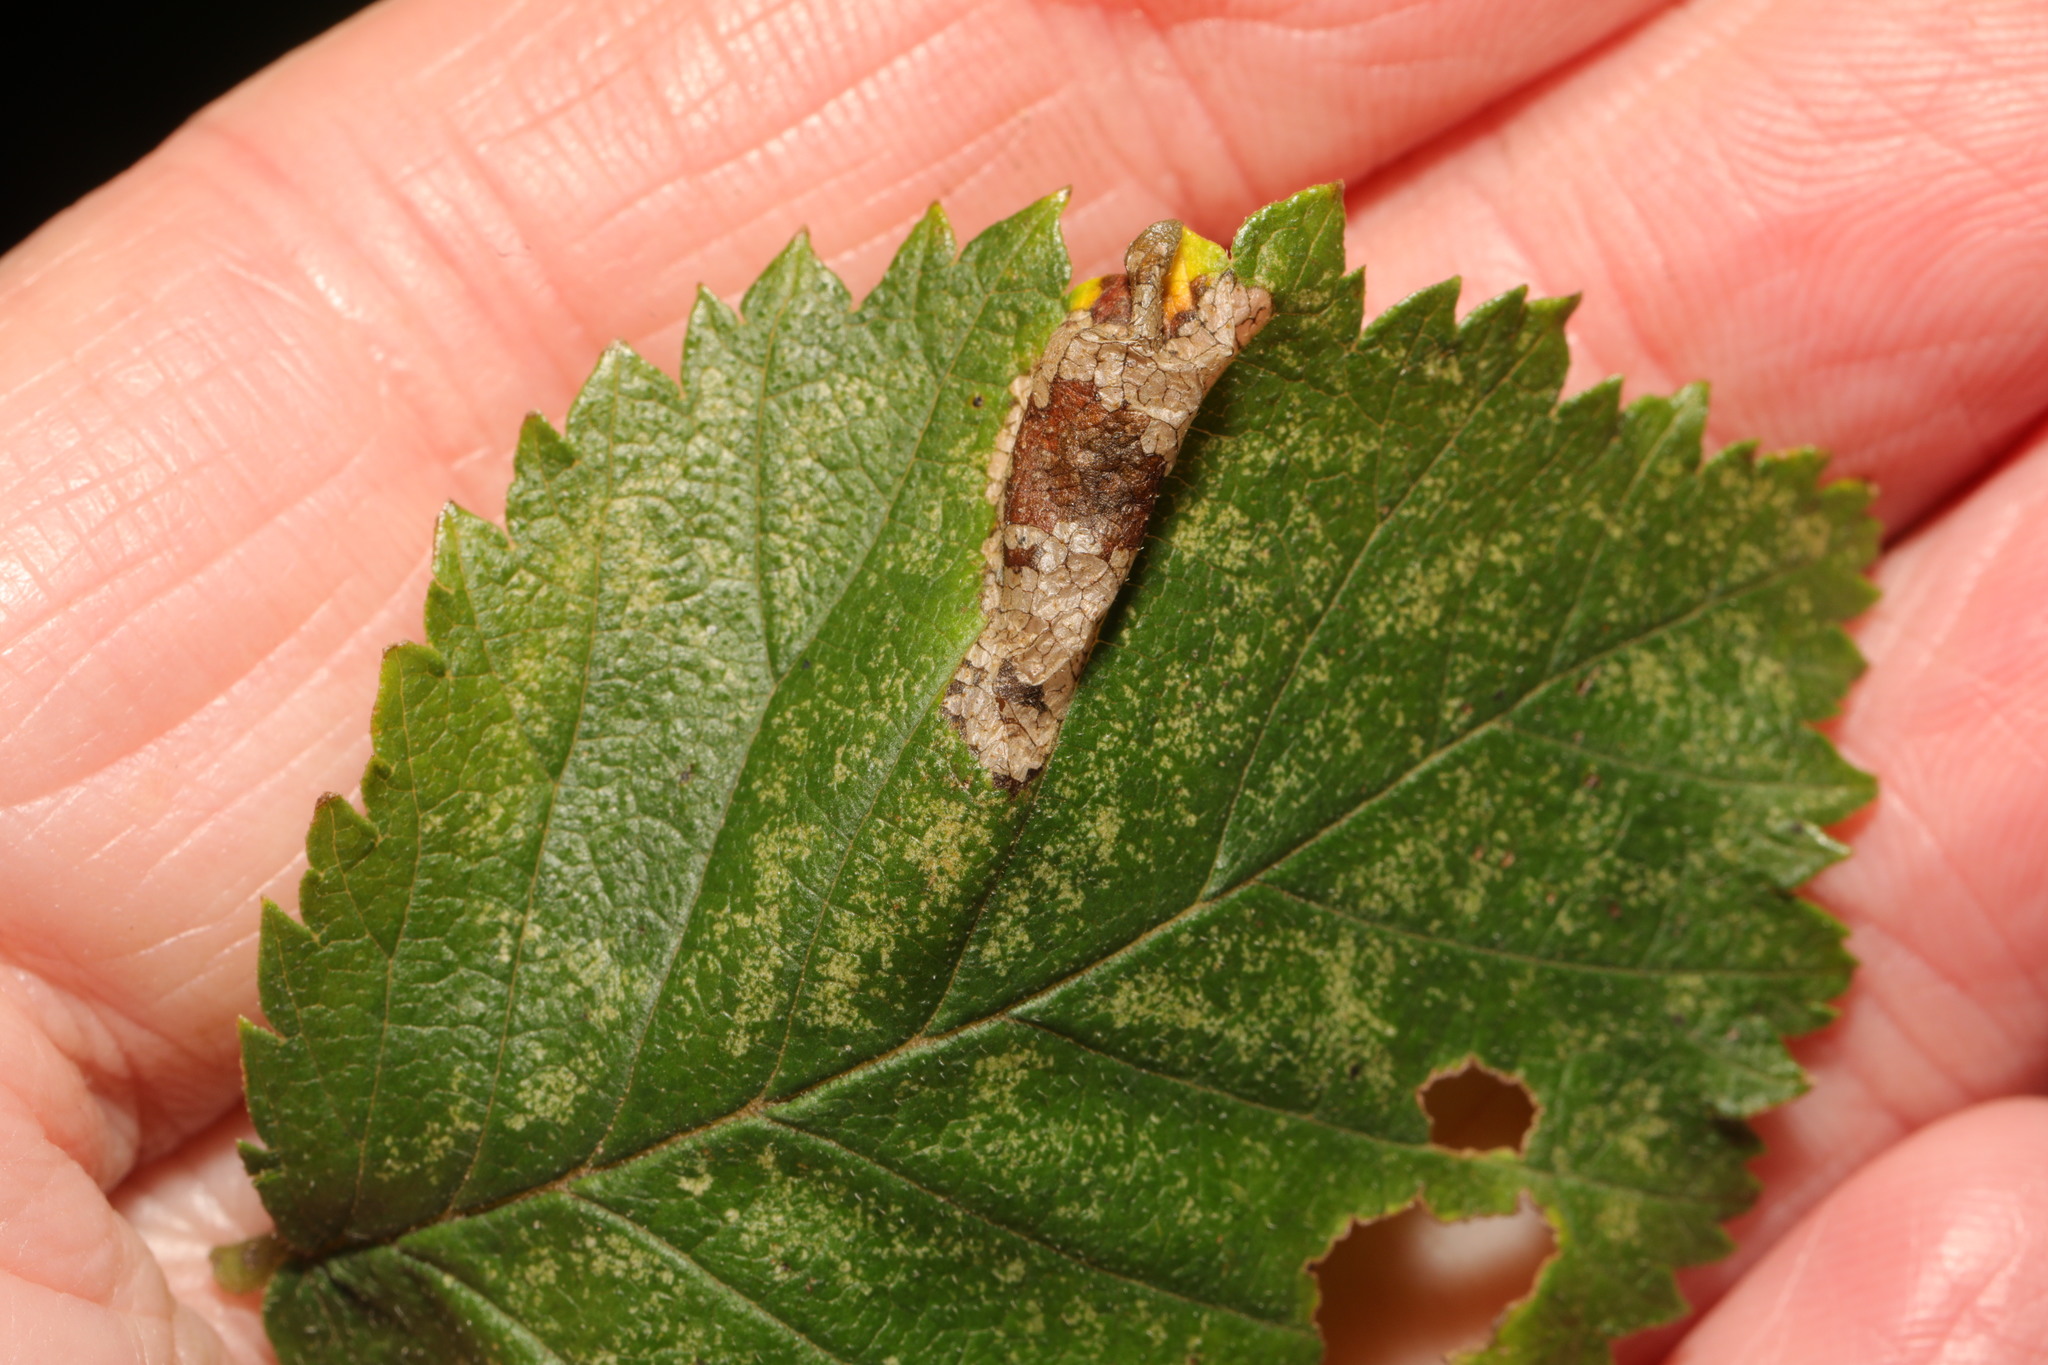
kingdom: Animalia
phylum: Arthropoda
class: Insecta
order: Lepidoptera
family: Gracillariidae
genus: Phyllonorycter
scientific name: Phyllonorycter schreberella
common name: Small elm midget
